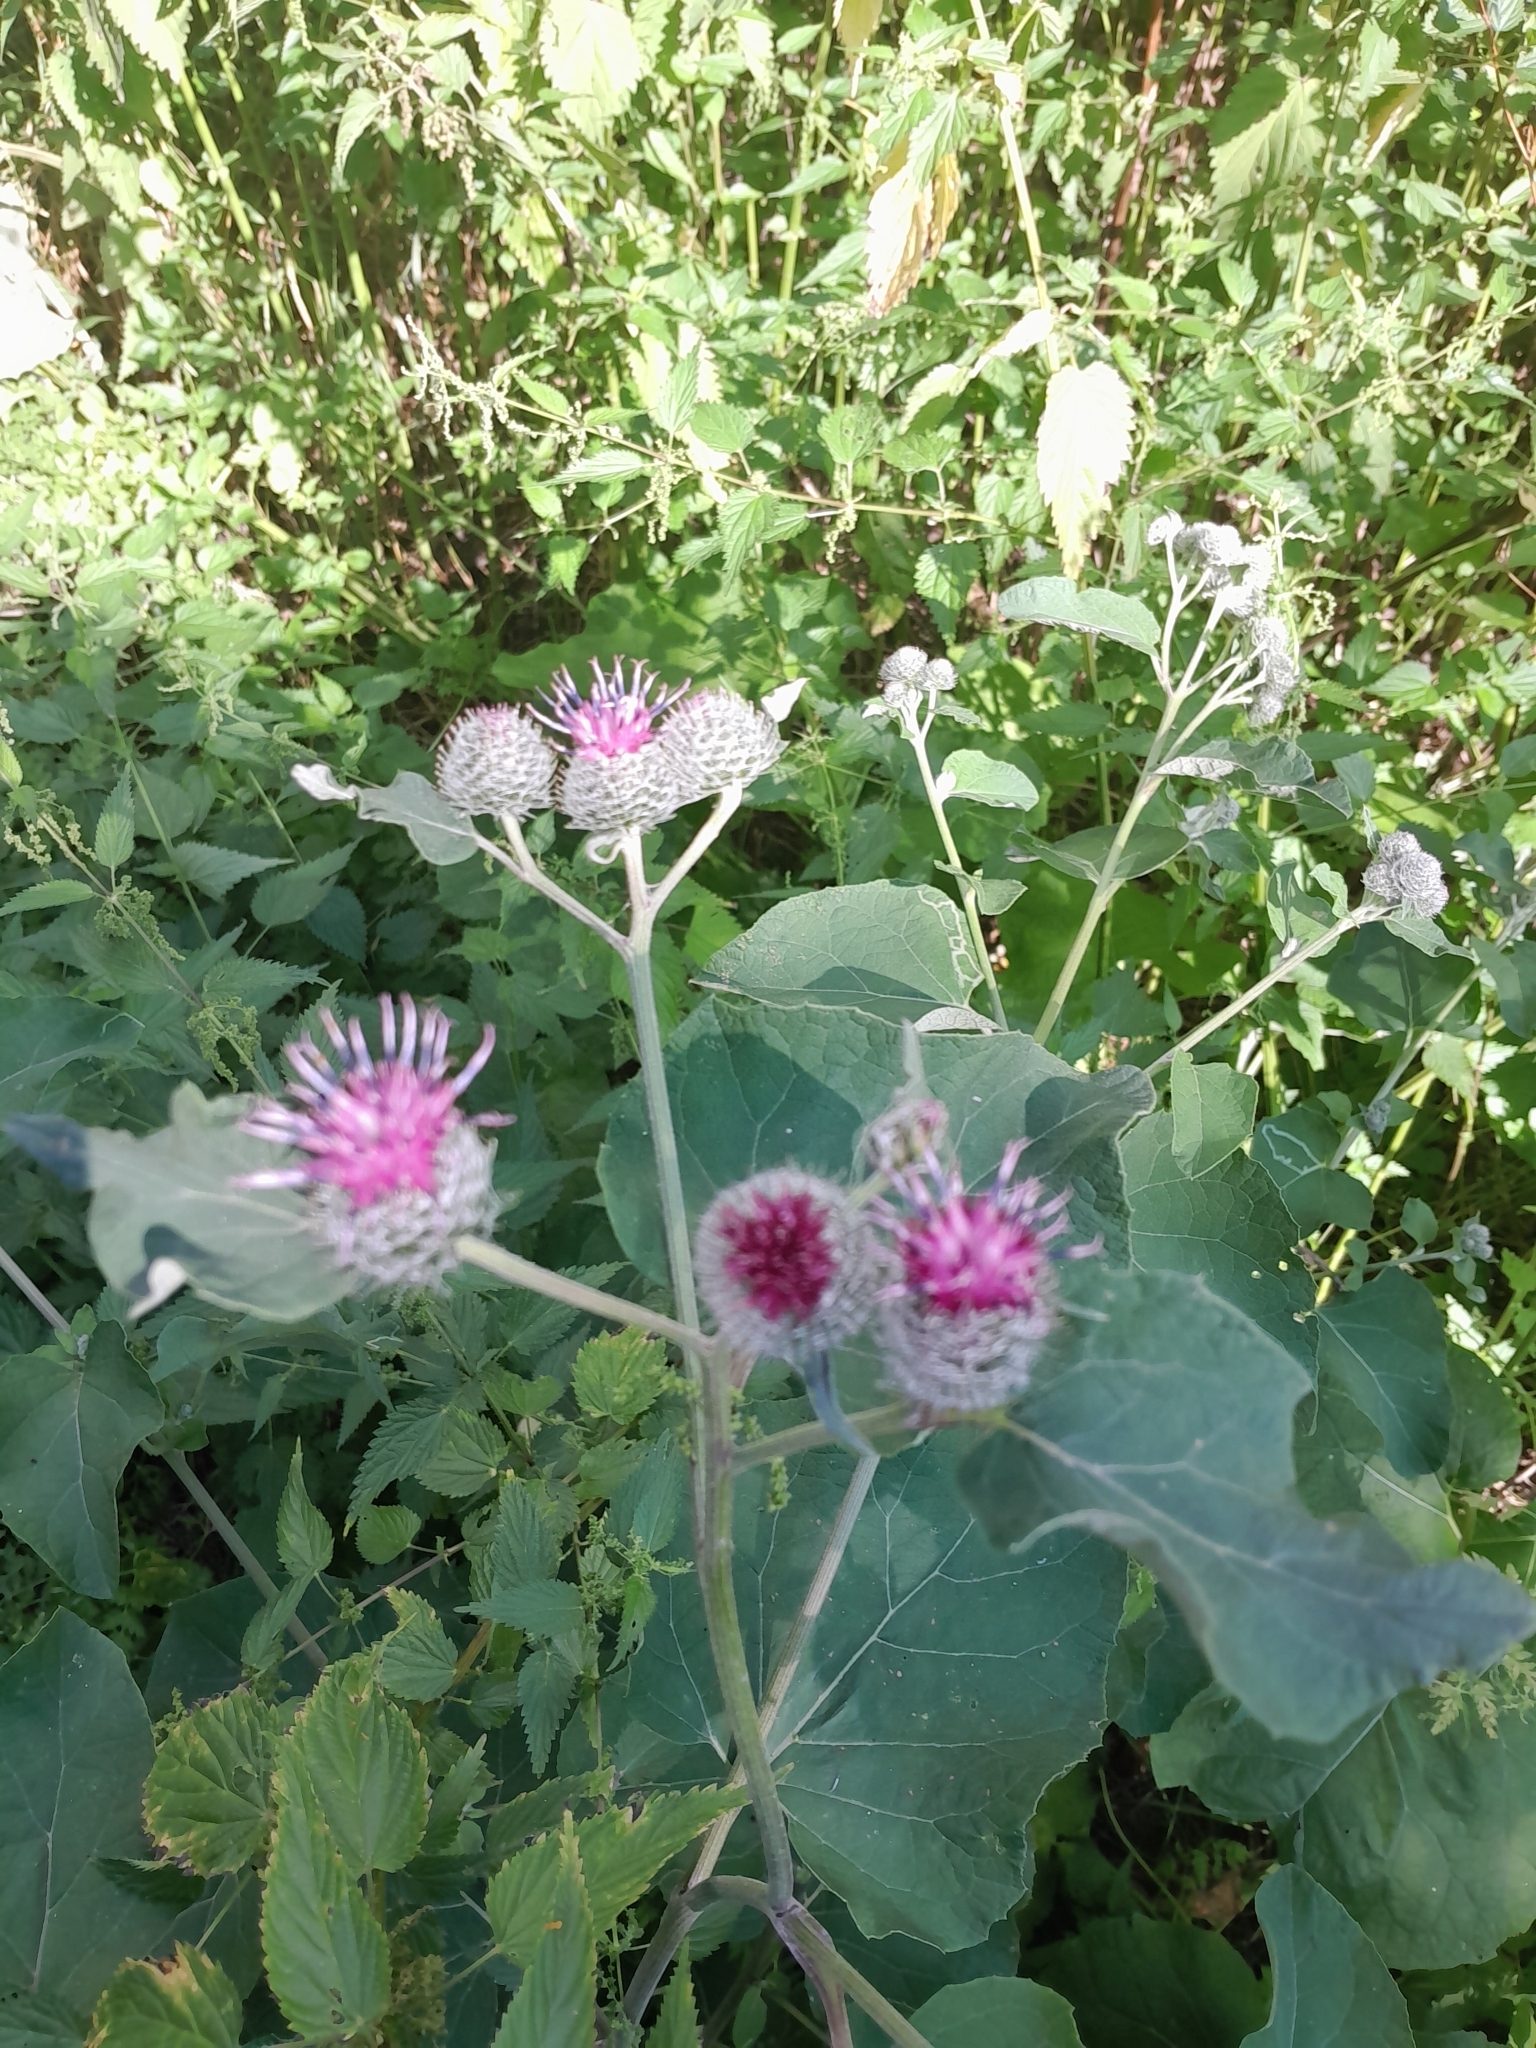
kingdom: Plantae
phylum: Tracheophyta
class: Magnoliopsida
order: Asterales
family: Asteraceae
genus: Arctium
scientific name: Arctium tomentosum
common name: Woolly burdock
